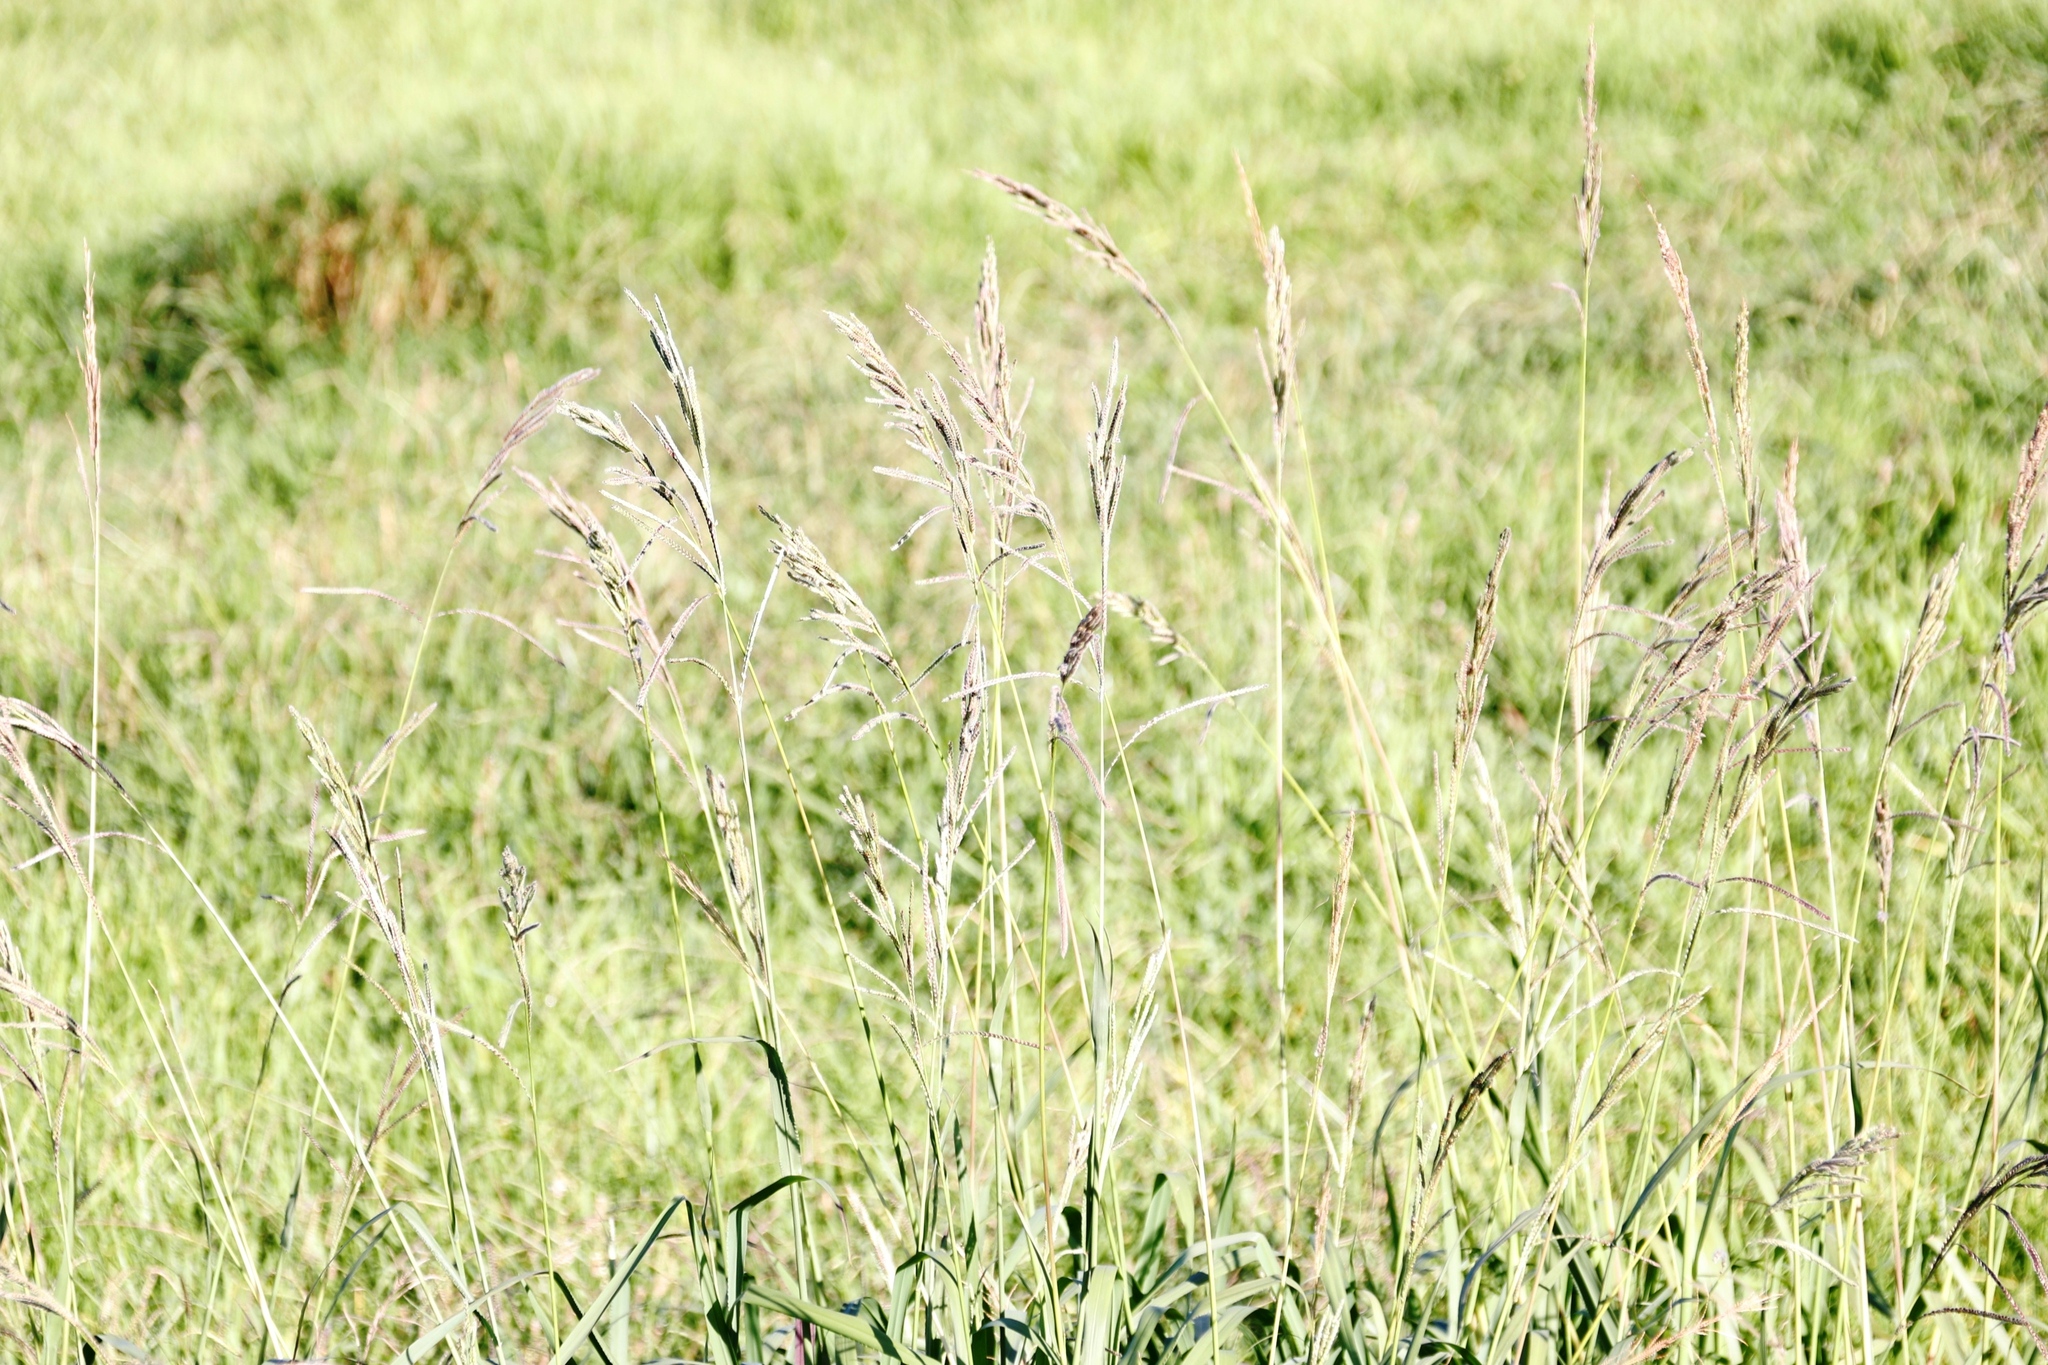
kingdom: Plantae
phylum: Tracheophyta
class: Liliopsida
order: Poales
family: Poaceae
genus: Paspalum
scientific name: Paspalum urvillei
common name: Vasey's grass
